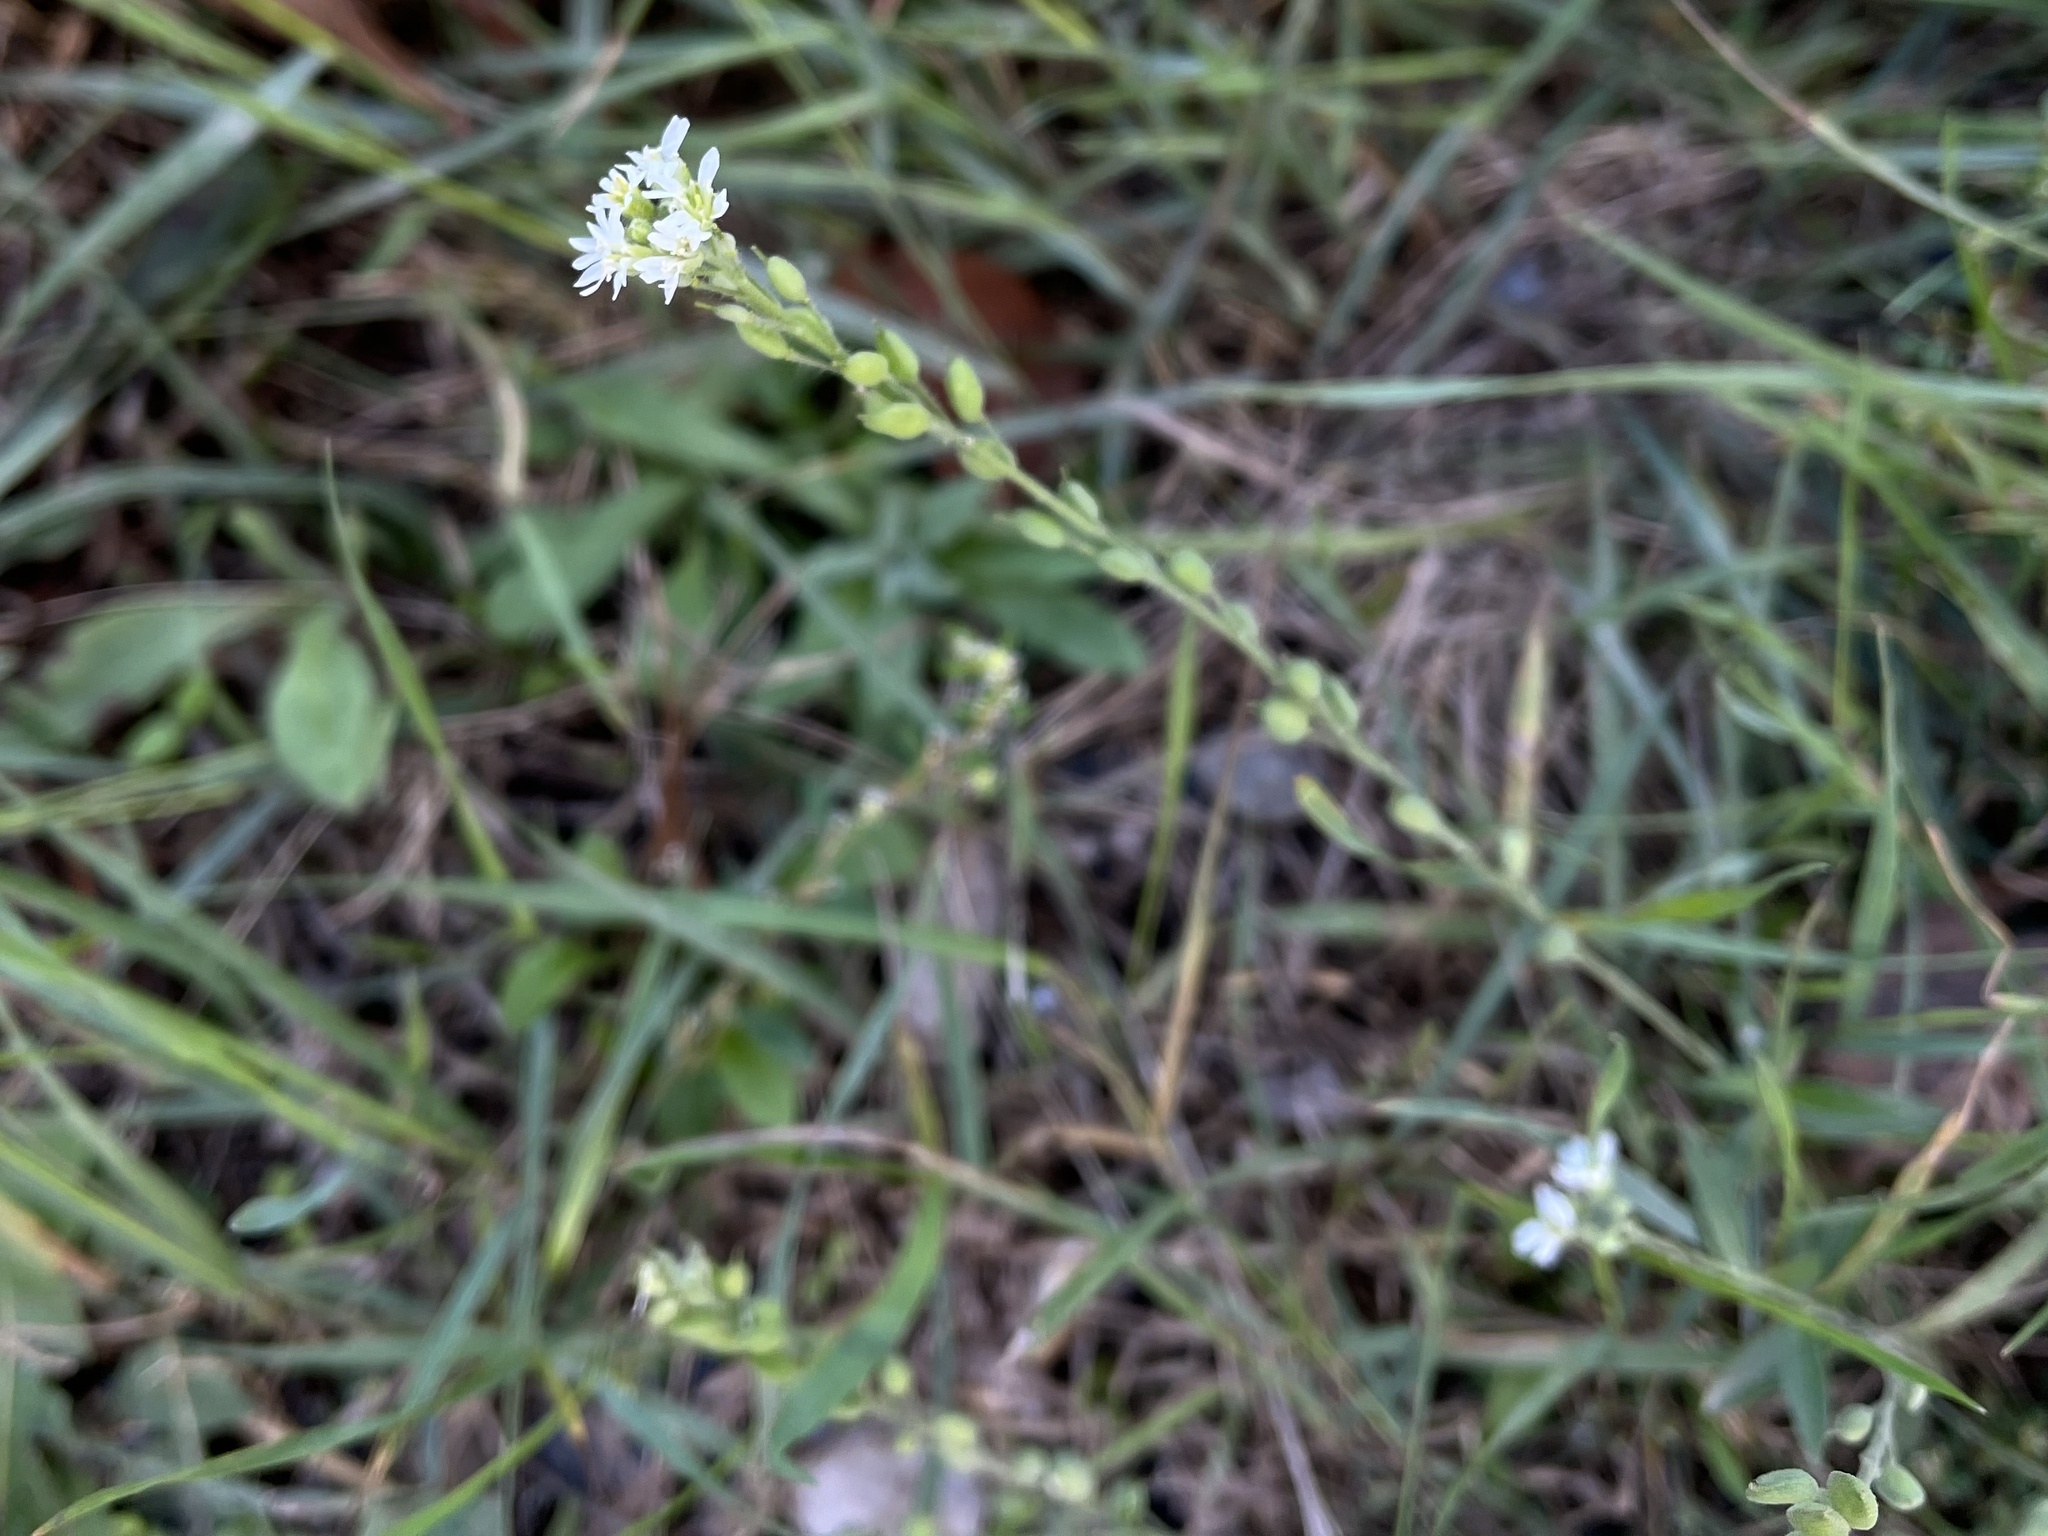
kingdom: Plantae
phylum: Tracheophyta
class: Magnoliopsida
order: Brassicales
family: Brassicaceae
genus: Berteroa
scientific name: Berteroa incana
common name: Hoary alison
